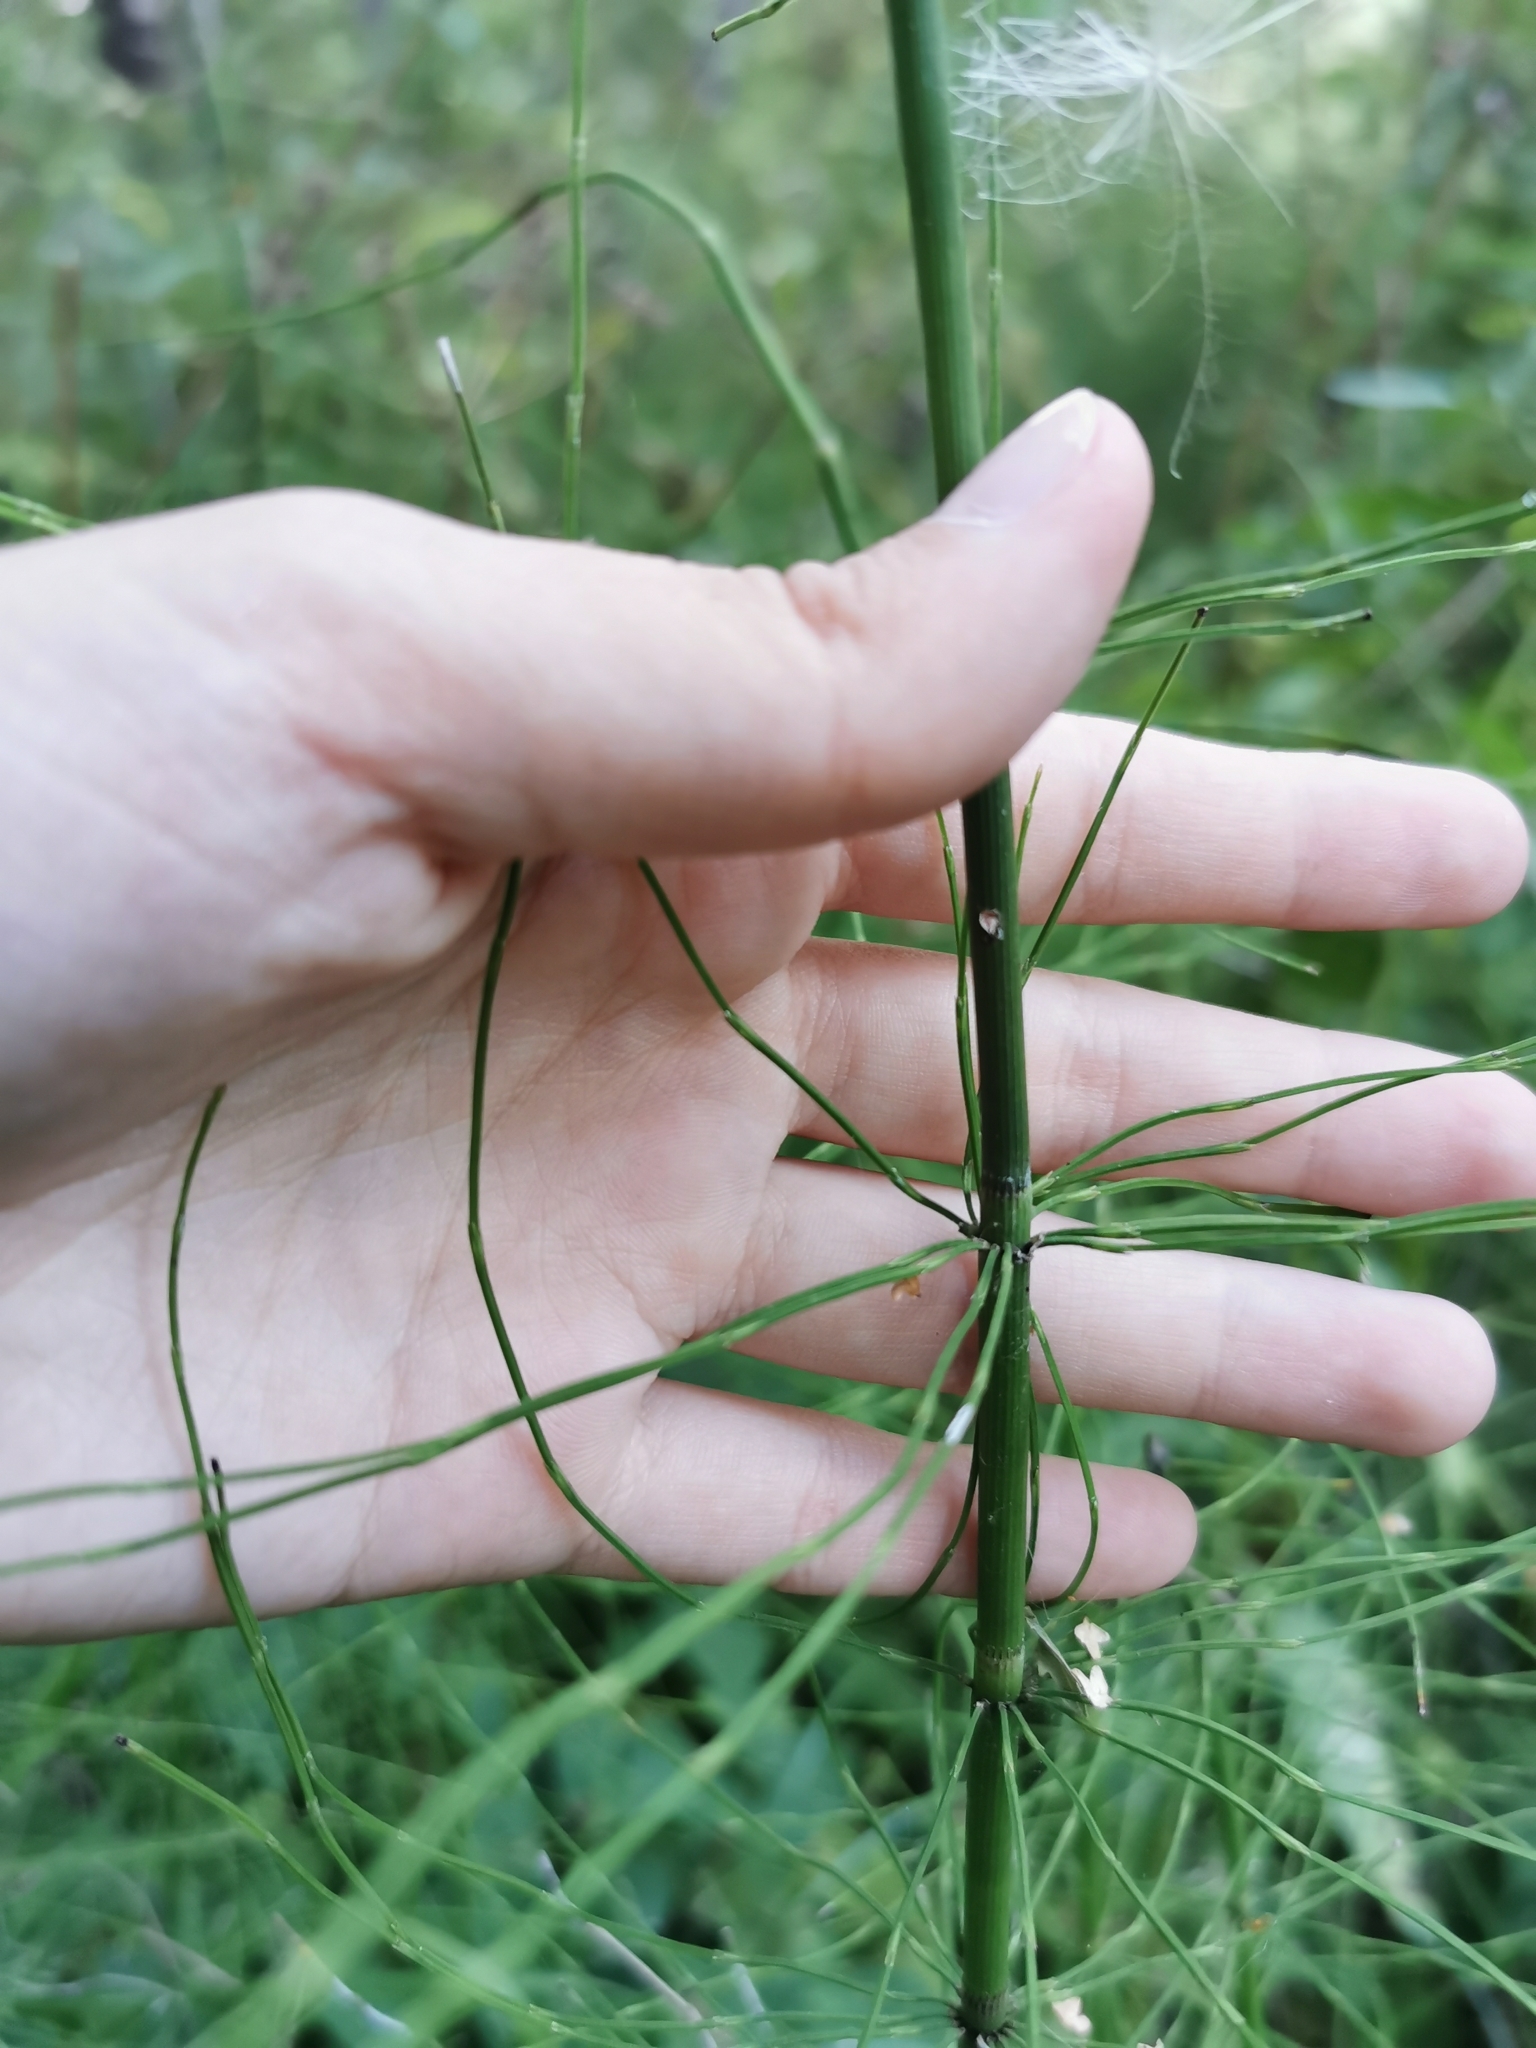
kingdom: Plantae
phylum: Tracheophyta
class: Polypodiopsida
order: Equisetales
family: Equisetaceae
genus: Equisetum
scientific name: Equisetum fluviatile
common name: Water horsetail
